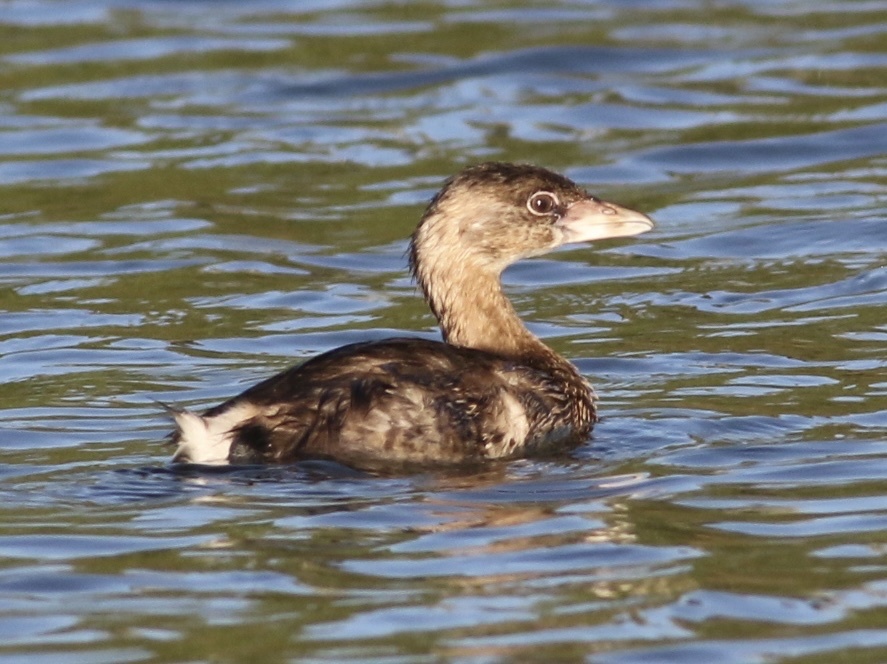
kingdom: Animalia
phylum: Chordata
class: Aves
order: Podicipediformes
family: Podicipedidae
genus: Podilymbus
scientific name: Podilymbus podiceps
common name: Pied-billed grebe
